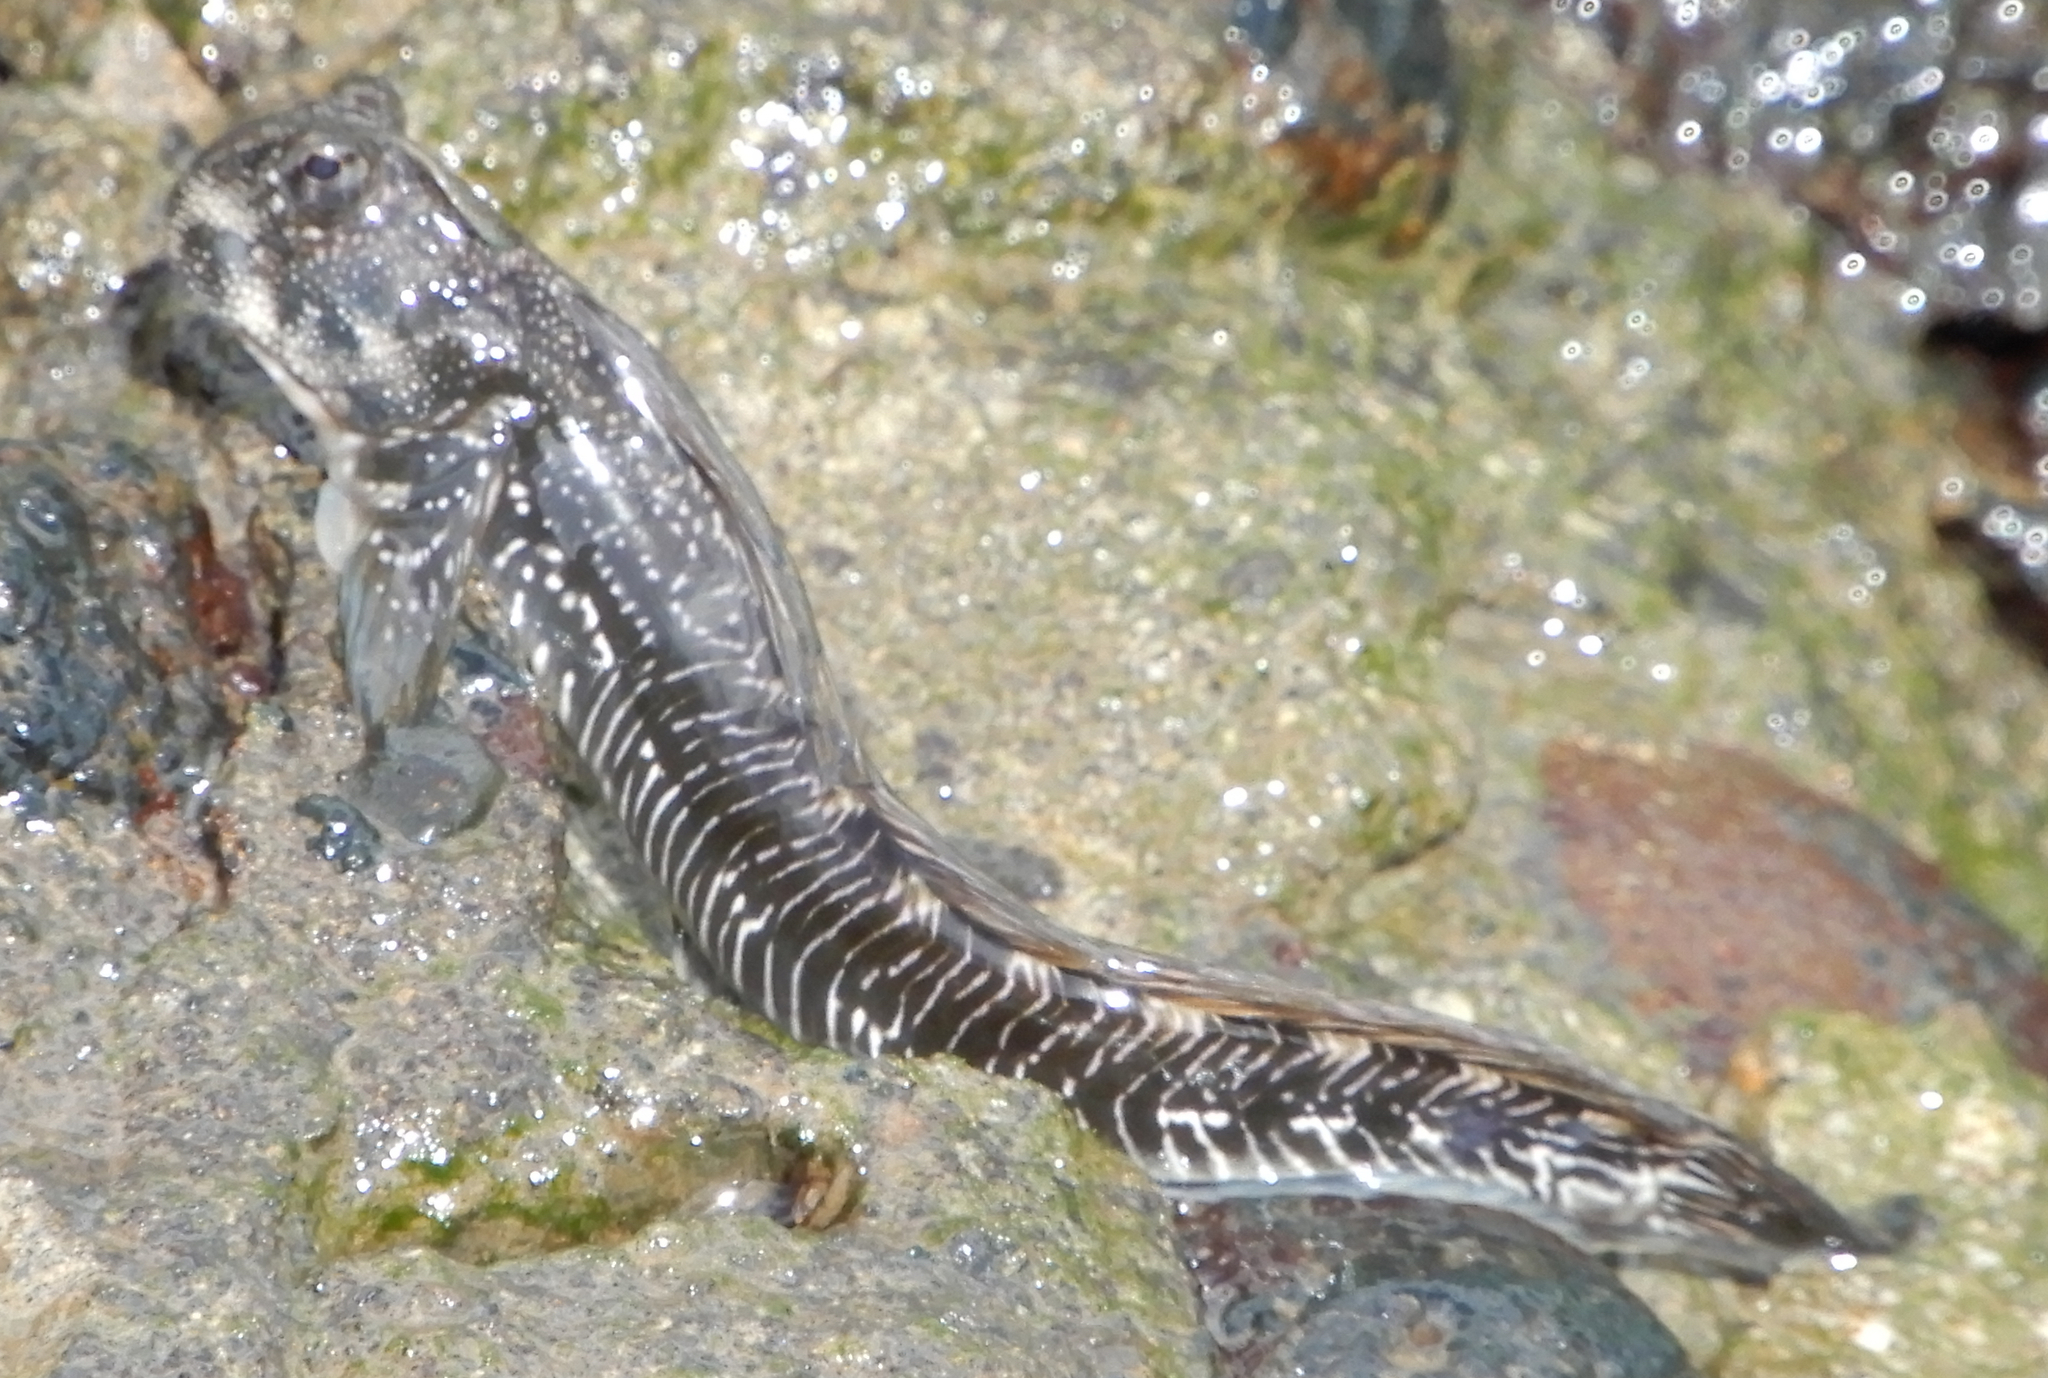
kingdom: Animalia
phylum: Chordata
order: Perciformes
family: Blenniidae
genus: Alticus
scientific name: Alticus simplicirrus
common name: Marquesan rockskipper
